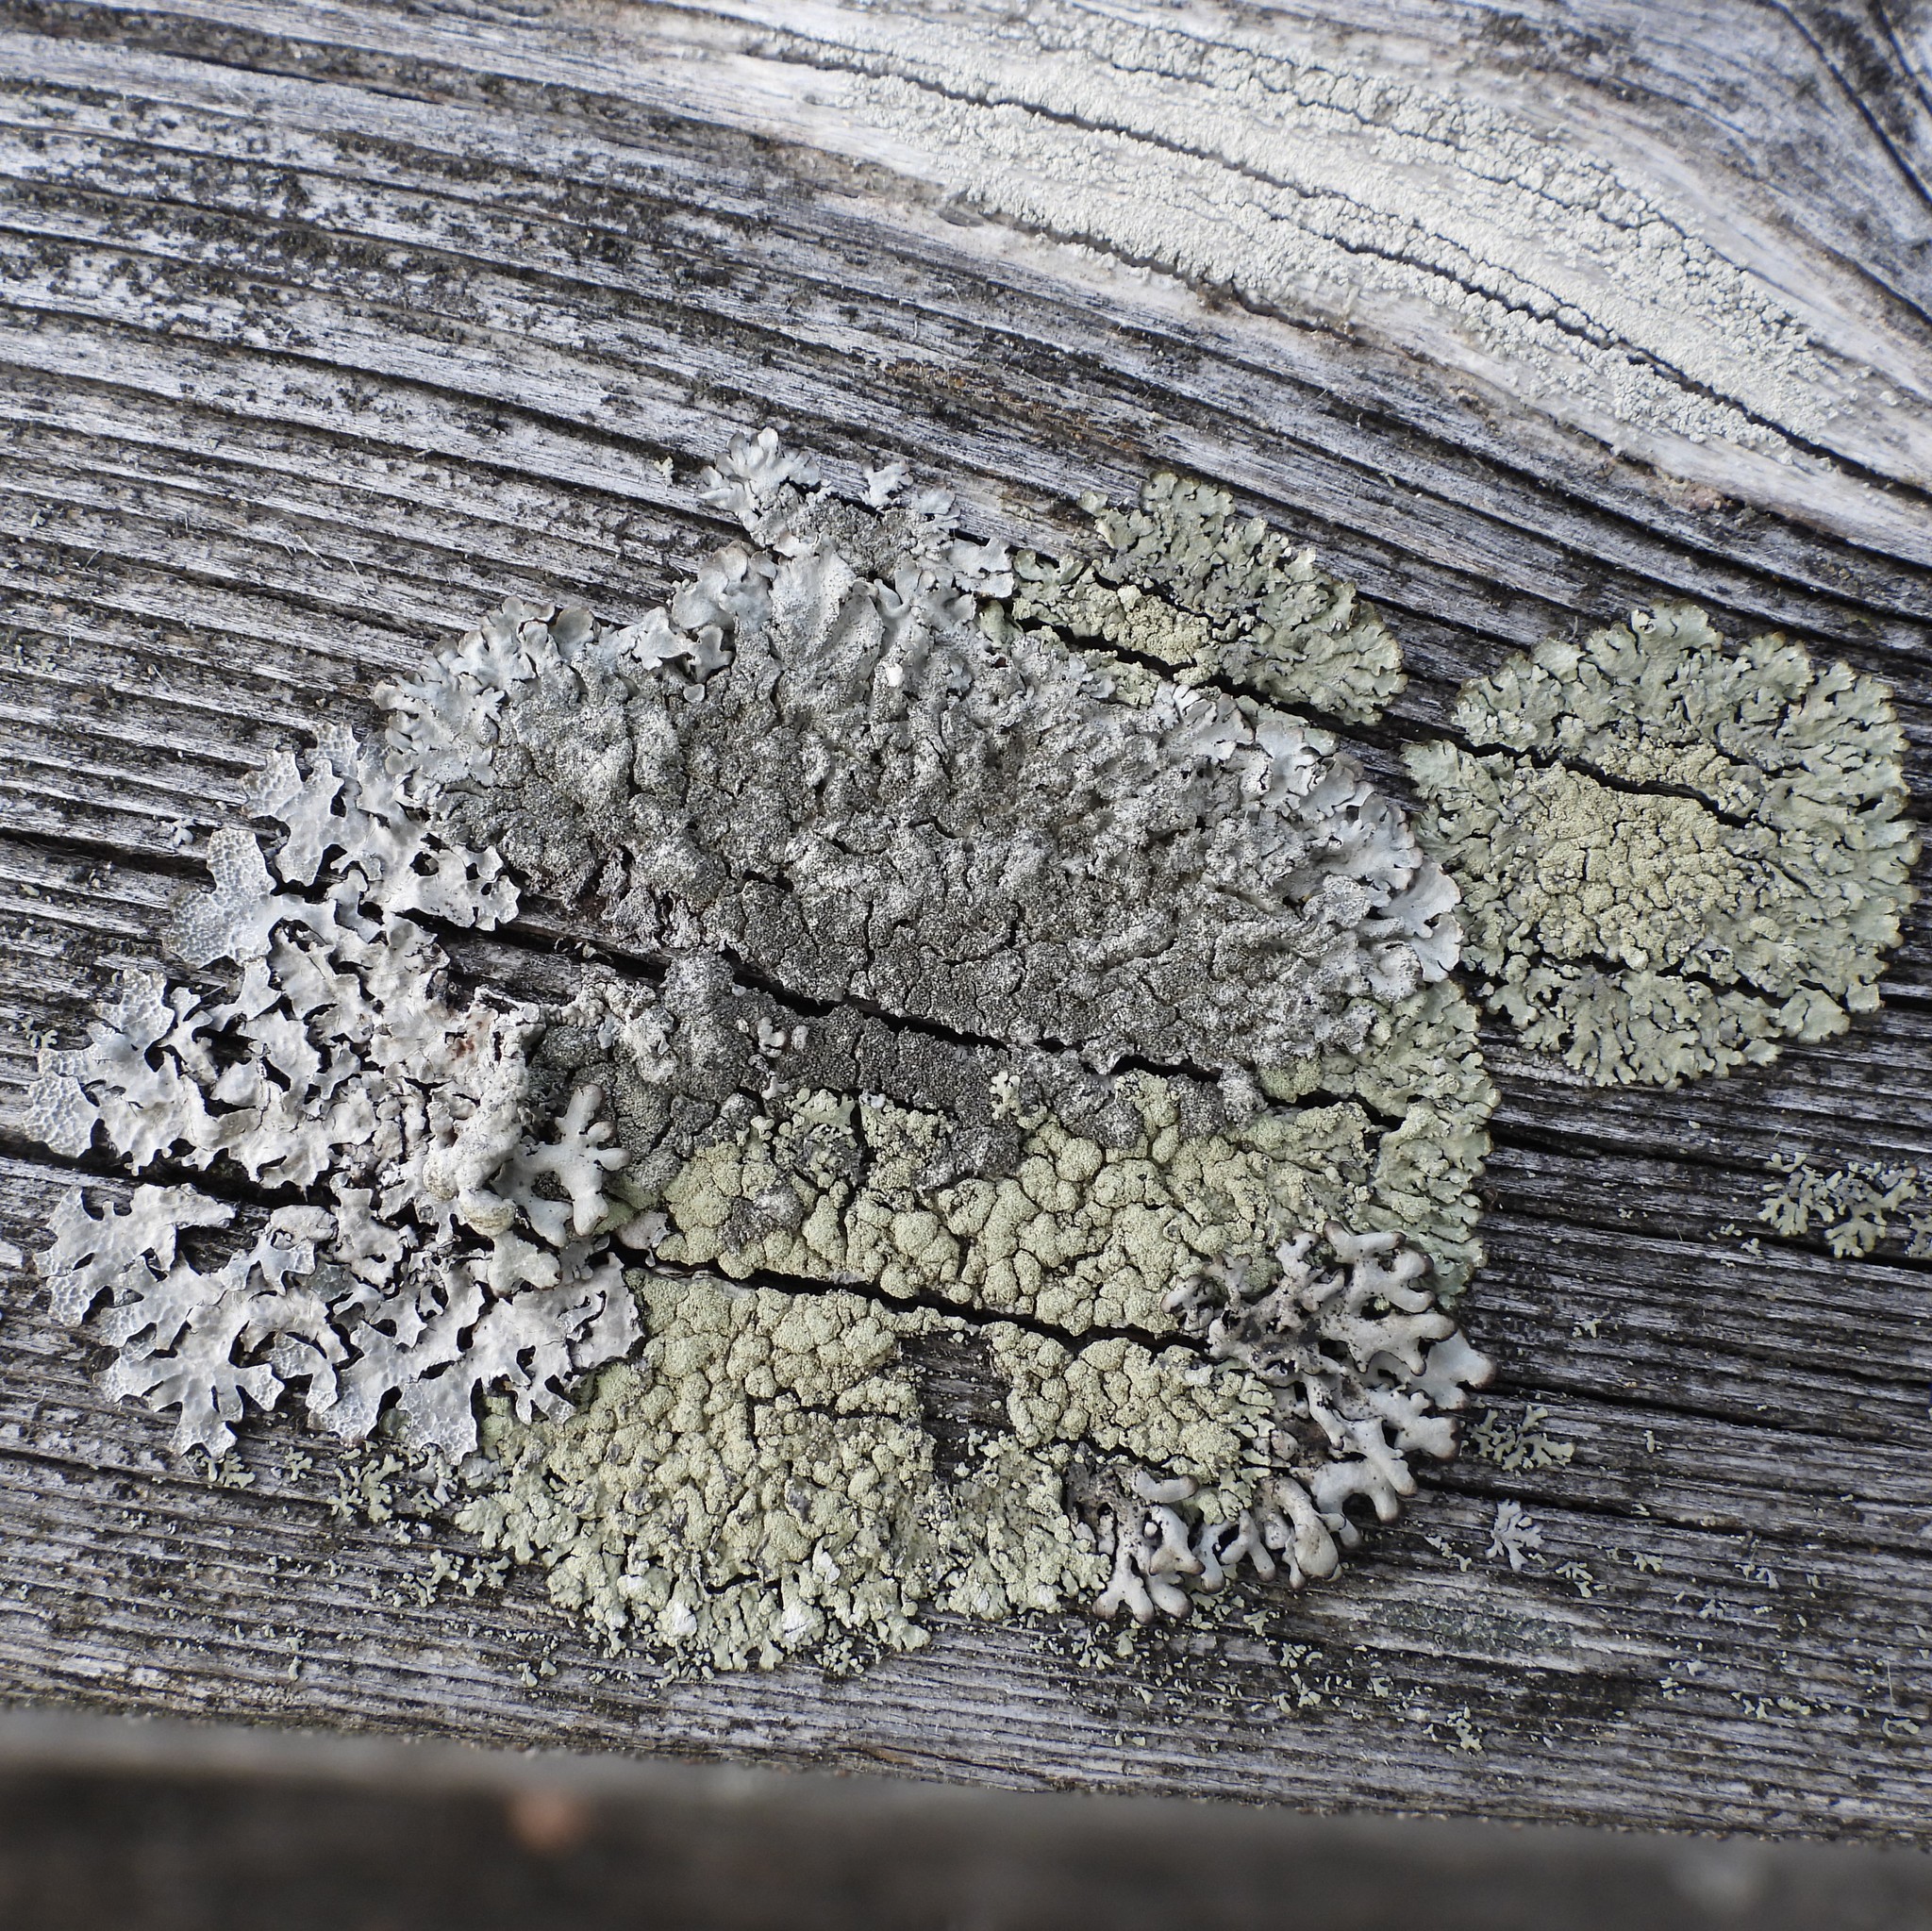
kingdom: Fungi
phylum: Ascomycota
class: Lecanoromycetes
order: Lecanorales
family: Parmeliaceae
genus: Imshaugia
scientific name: Imshaugia aleurites
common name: Salted starburst lichen
